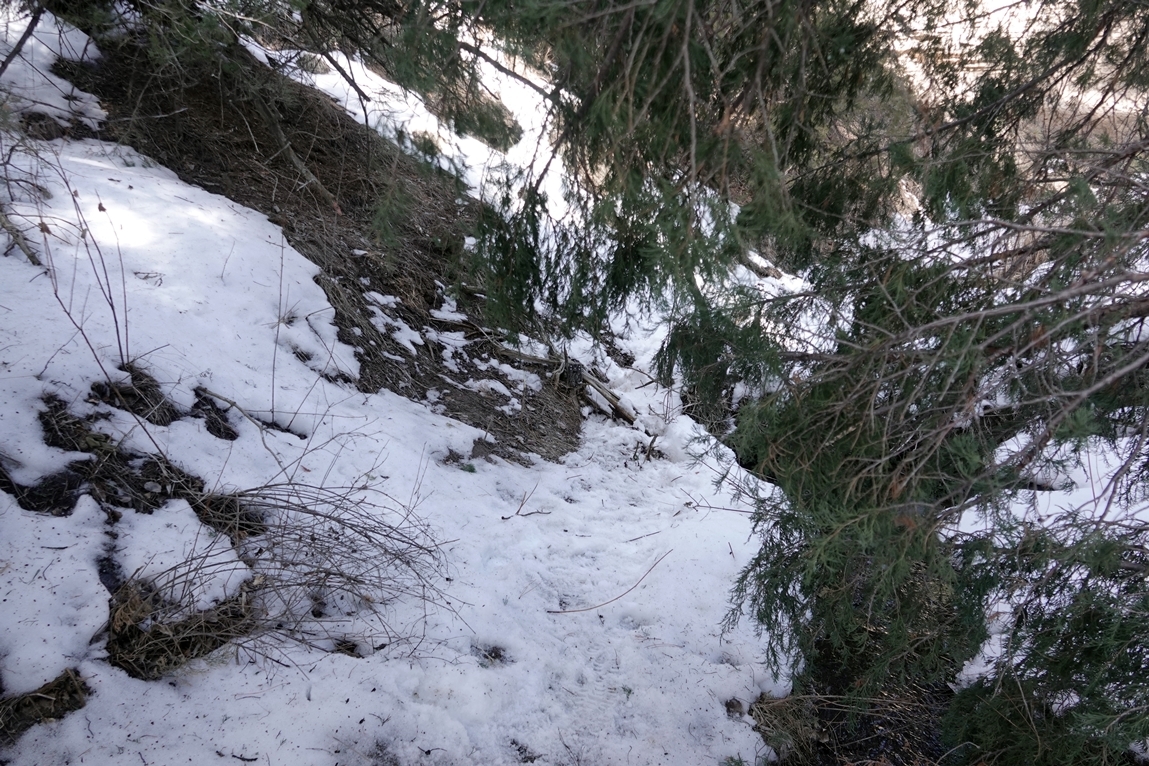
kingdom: Animalia
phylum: Chordata
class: Mammalia
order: Didelphimorphia
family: Didelphidae
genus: Didelphis
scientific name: Didelphis virginiana
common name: Virginia opossum
